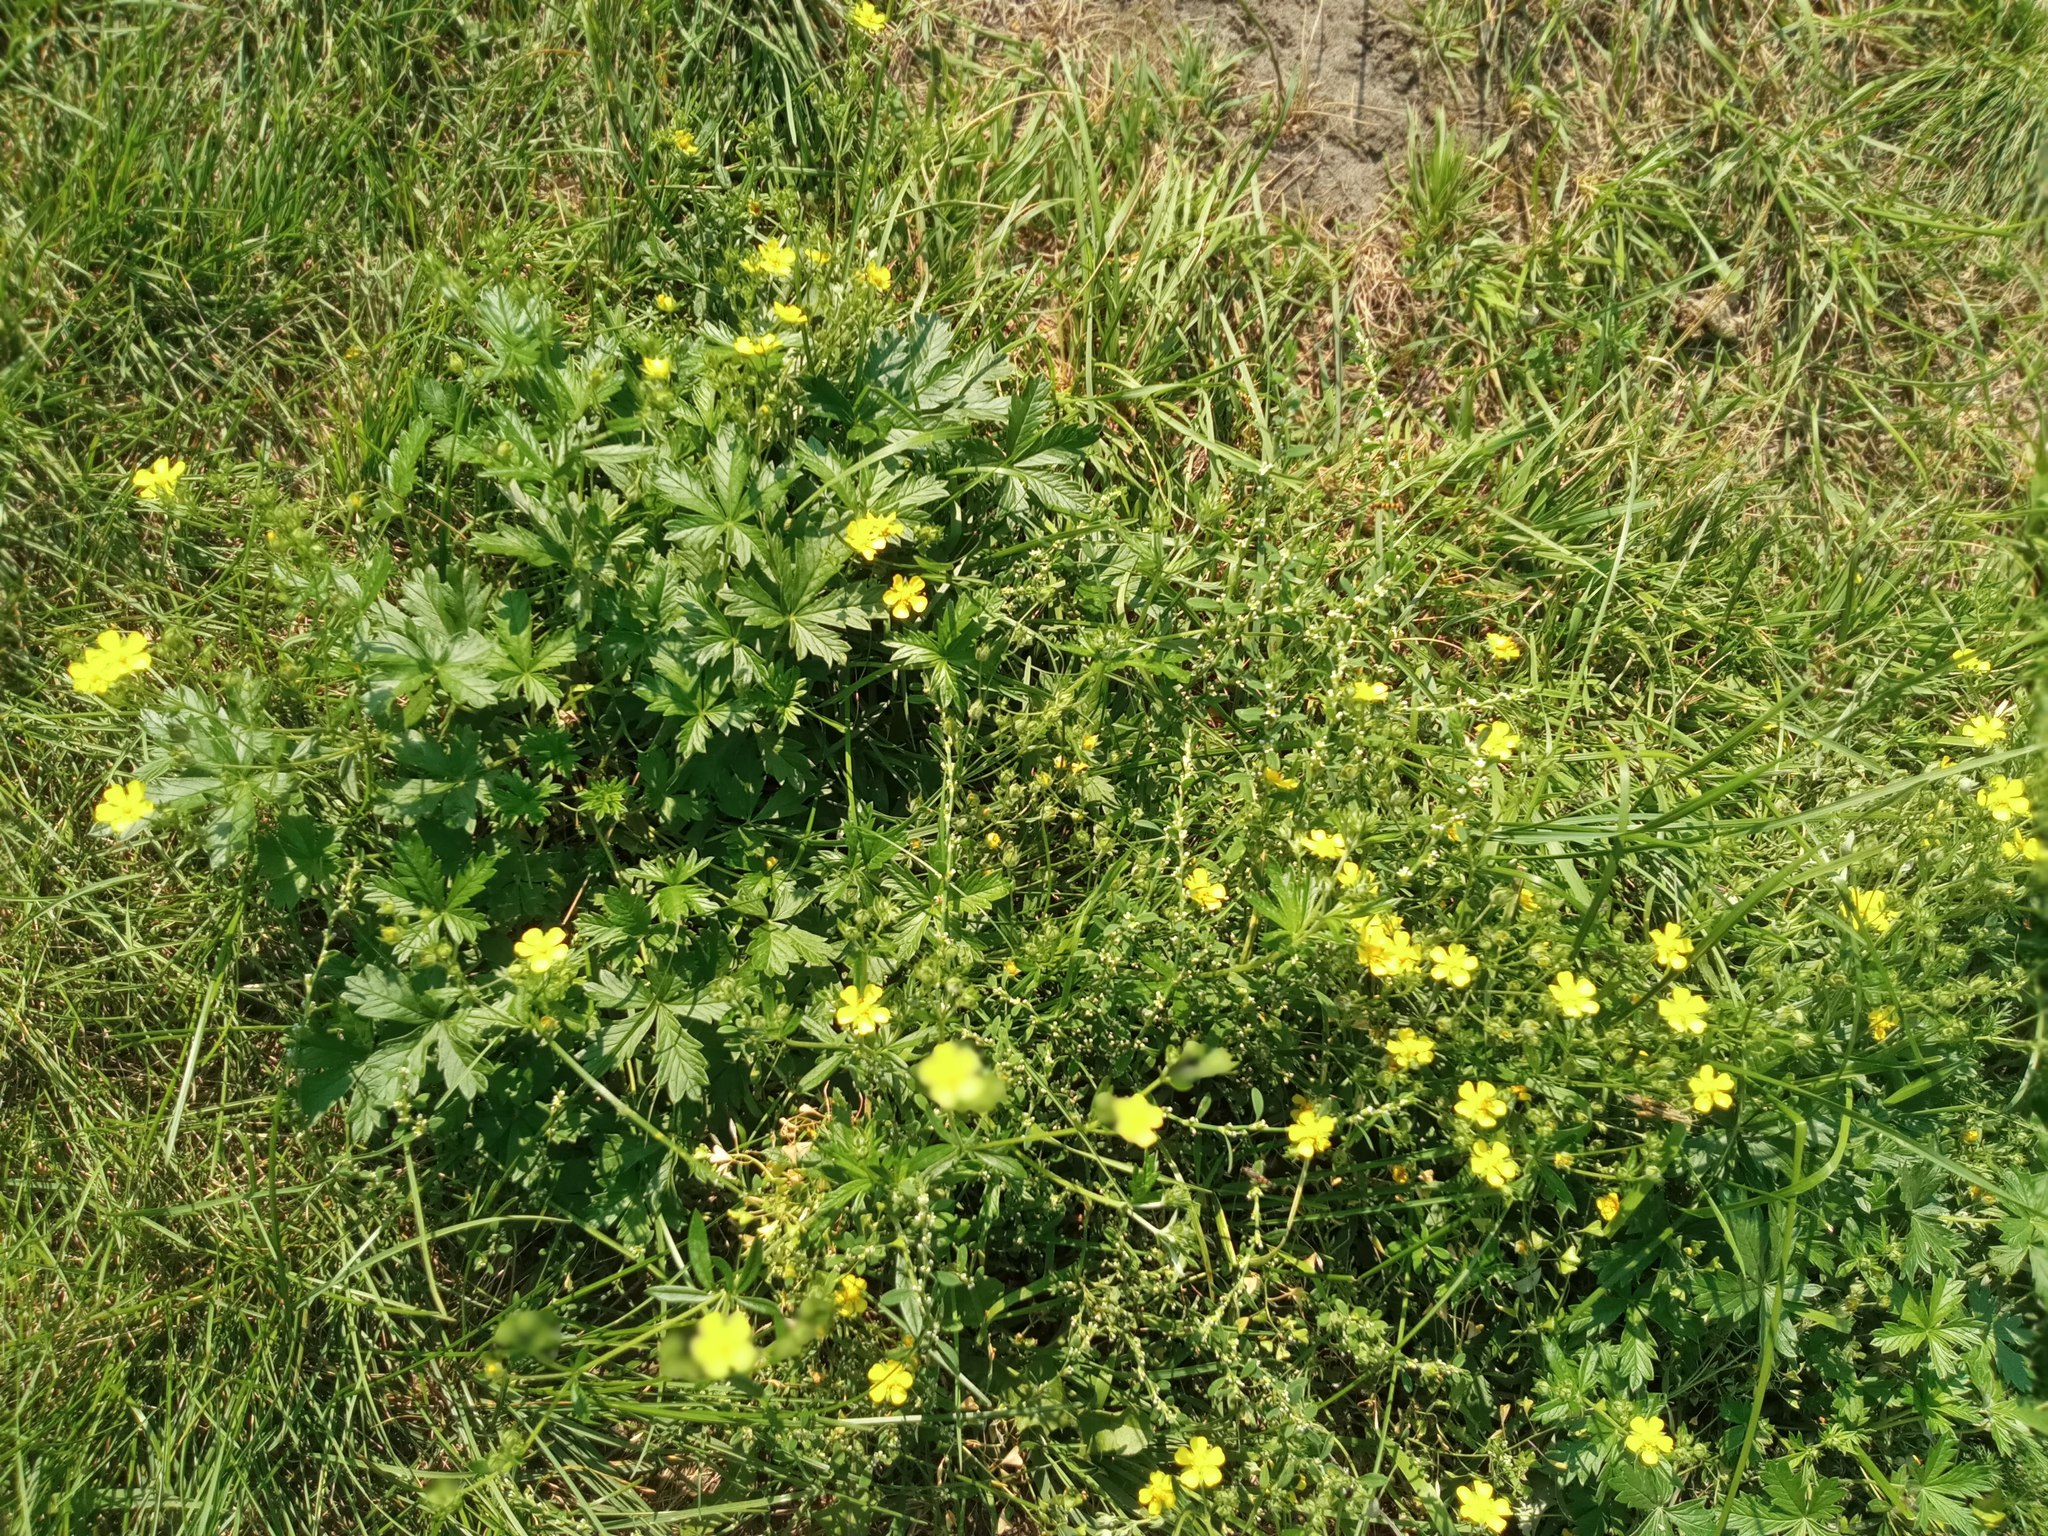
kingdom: Plantae
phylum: Tracheophyta
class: Magnoliopsida
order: Rosales
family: Rosaceae
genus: Potentilla
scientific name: Potentilla intermedia
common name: Downy cinquefoil
